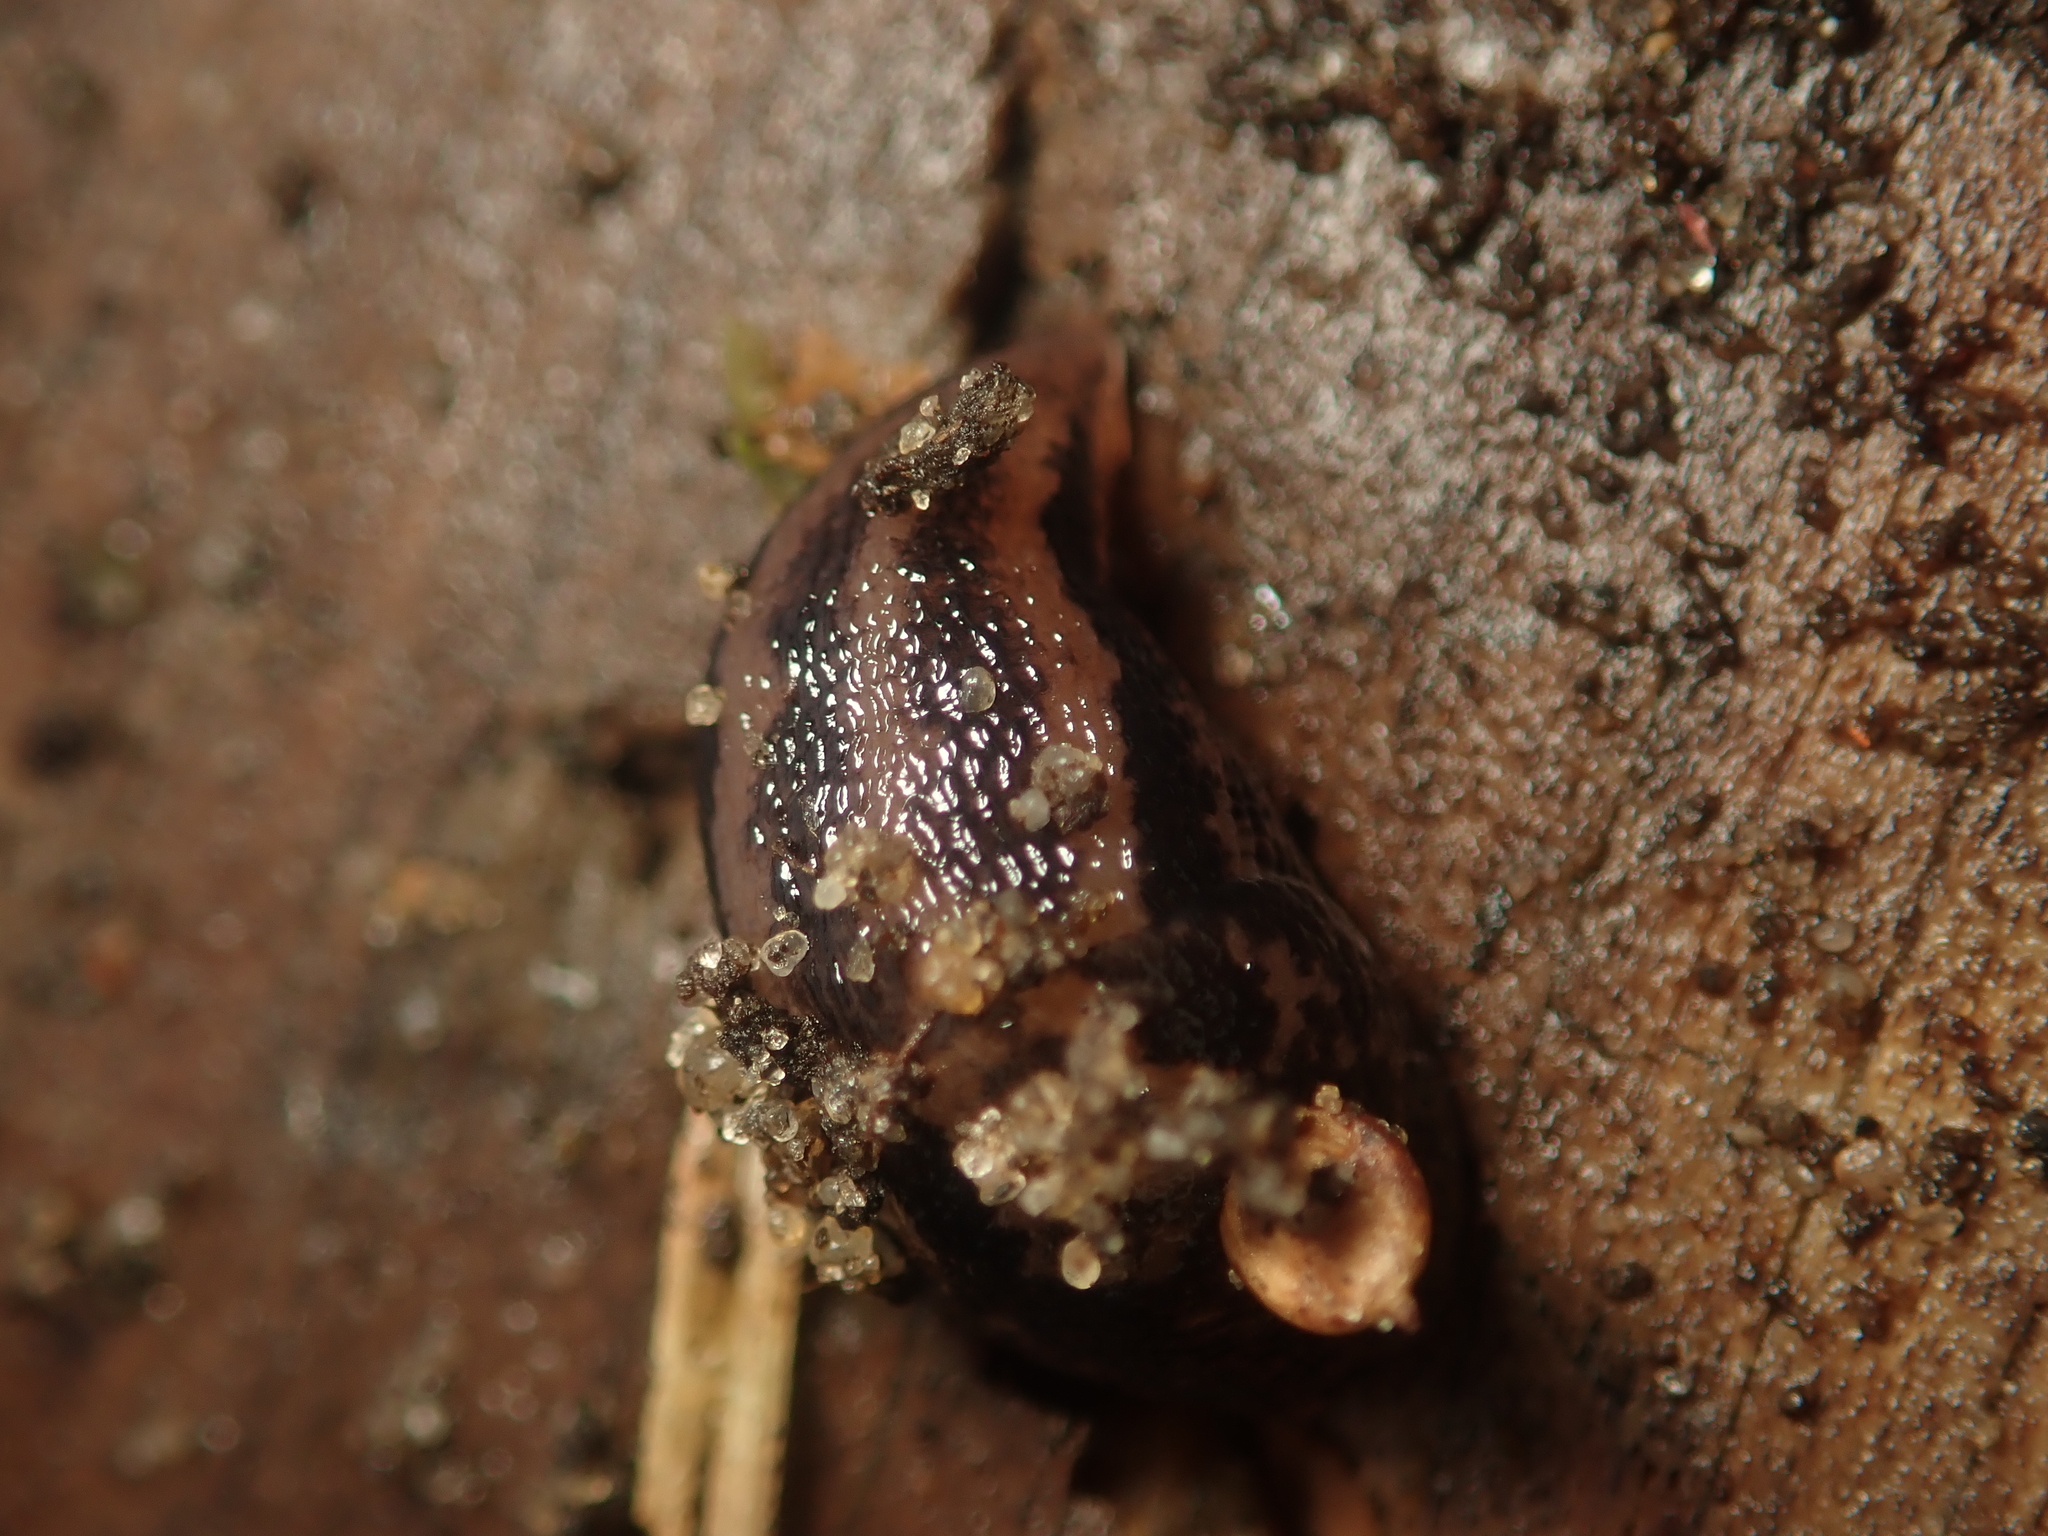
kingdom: Animalia
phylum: Mollusca
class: Gastropoda
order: Stylommatophora
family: Limacidae
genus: Limax
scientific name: Limax maximus
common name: Great grey slug
